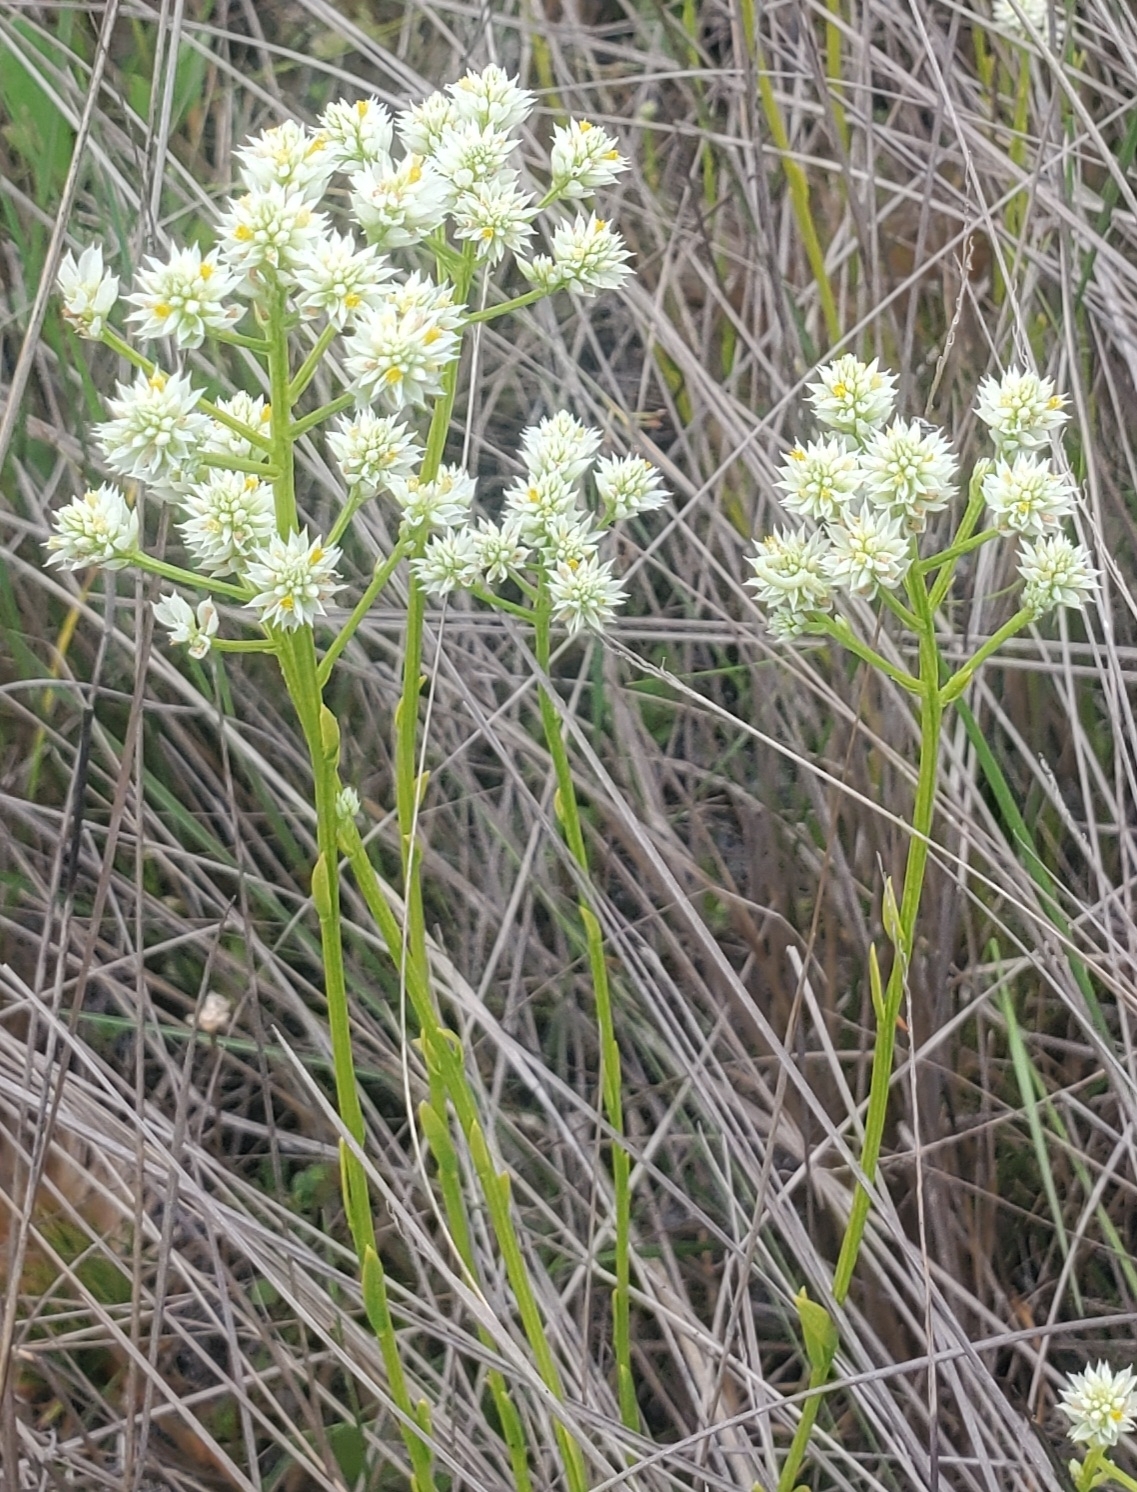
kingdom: Plantae
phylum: Tracheophyta
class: Magnoliopsida
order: Fabales
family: Polygalaceae
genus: Polygala
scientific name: Polygala baldwinii
